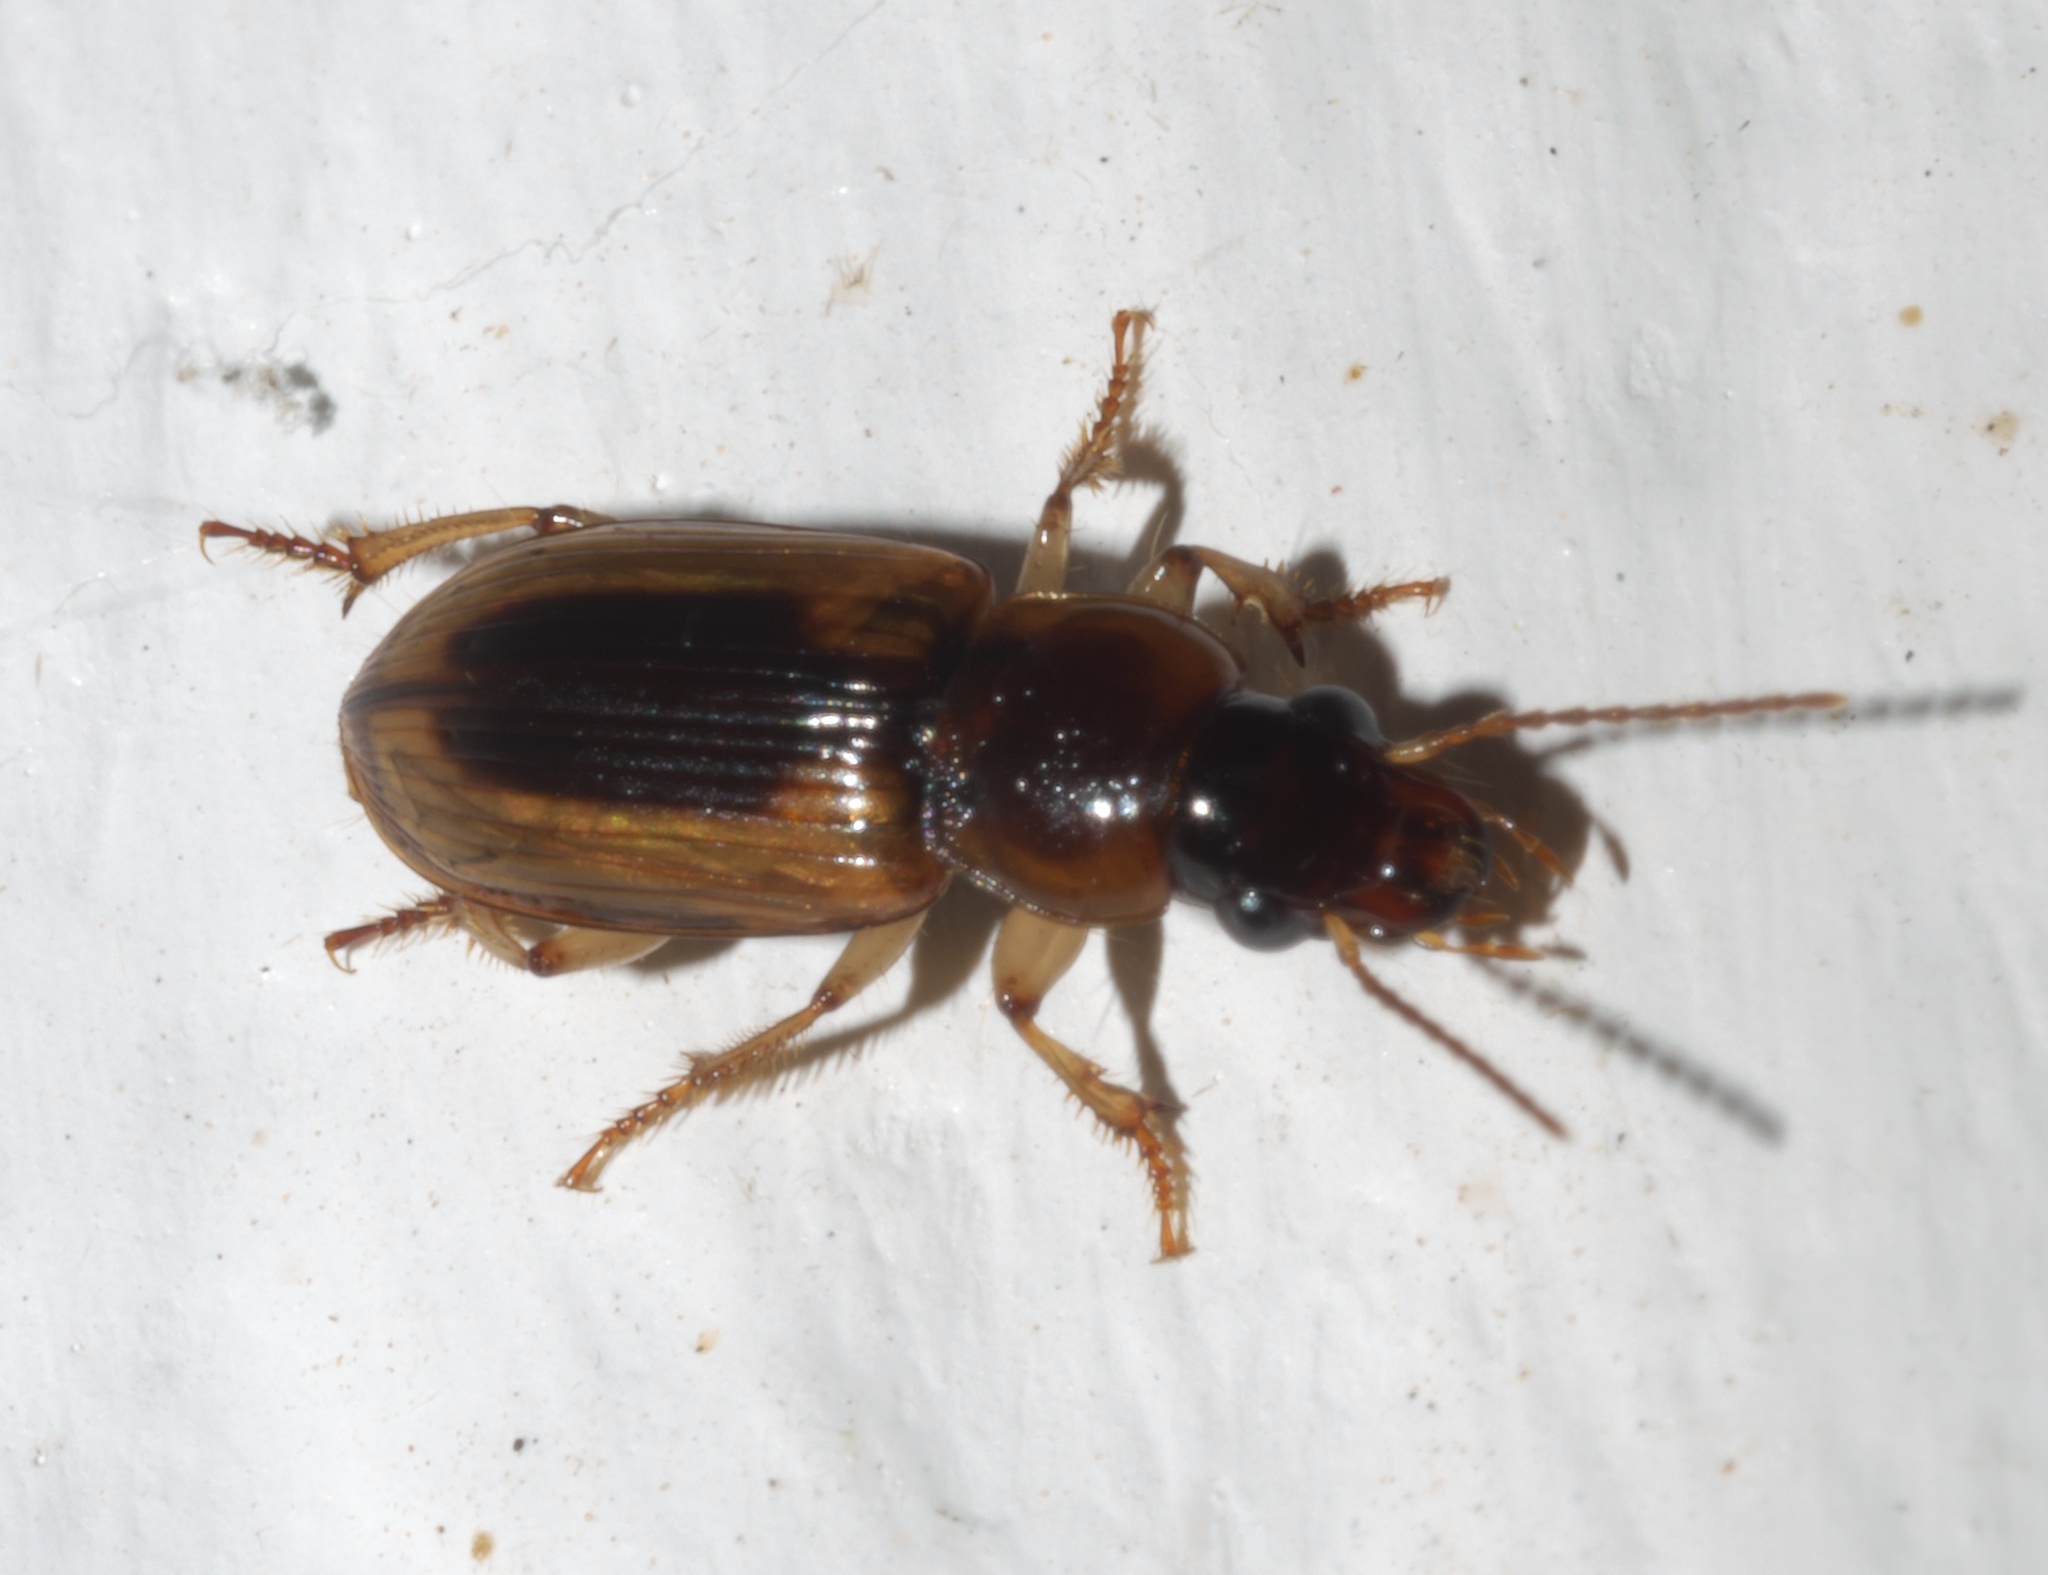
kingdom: Animalia
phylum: Arthropoda
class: Insecta
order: Coleoptera
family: Carabidae
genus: Stenolophus
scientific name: Stenolophus lecontei
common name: Leconte's seedcorn beetle
